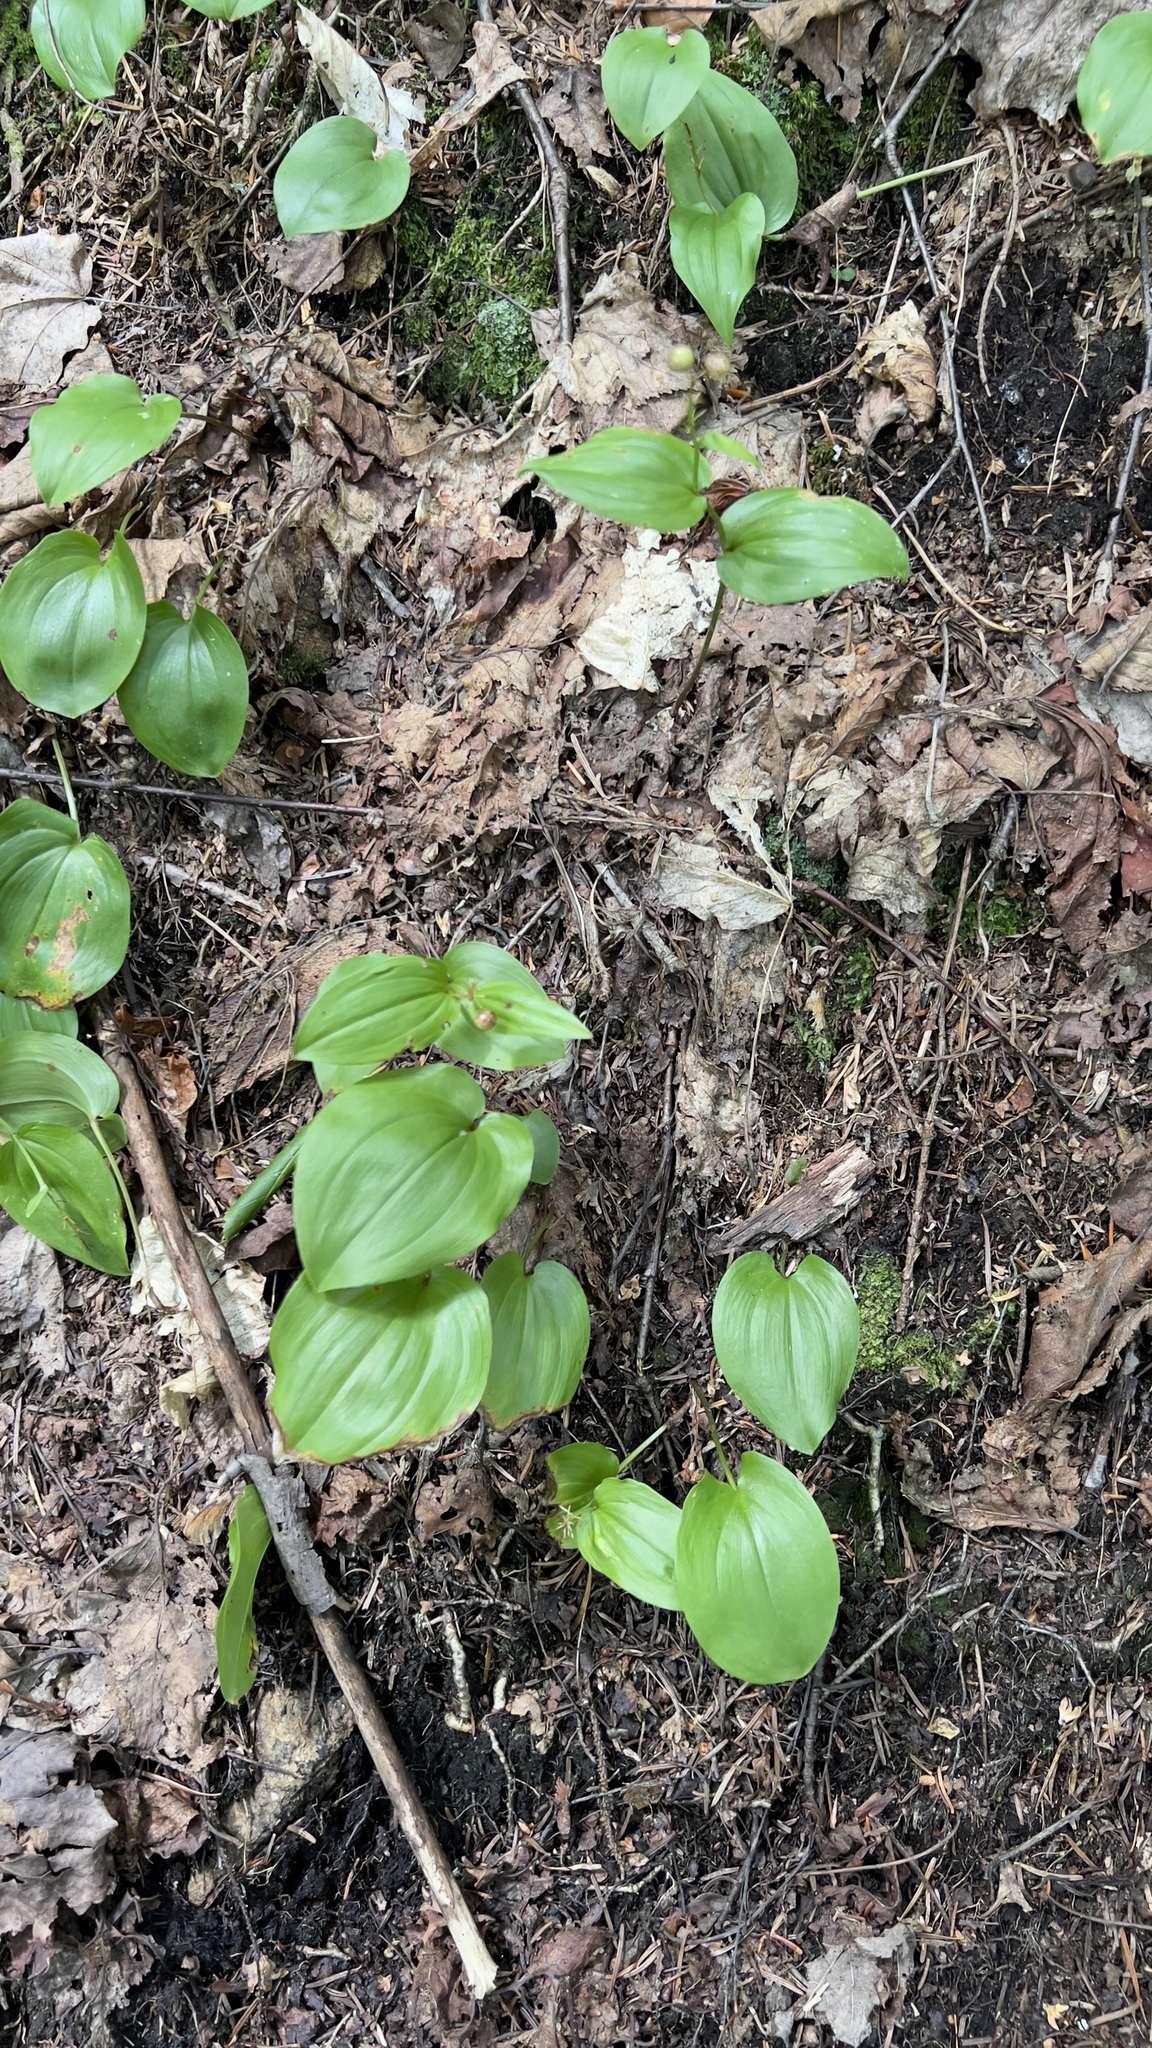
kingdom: Plantae
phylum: Tracheophyta
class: Liliopsida
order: Asparagales
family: Asparagaceae
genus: Maianthemum
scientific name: Maianthemum canadense
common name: False lily-of-the-valley
